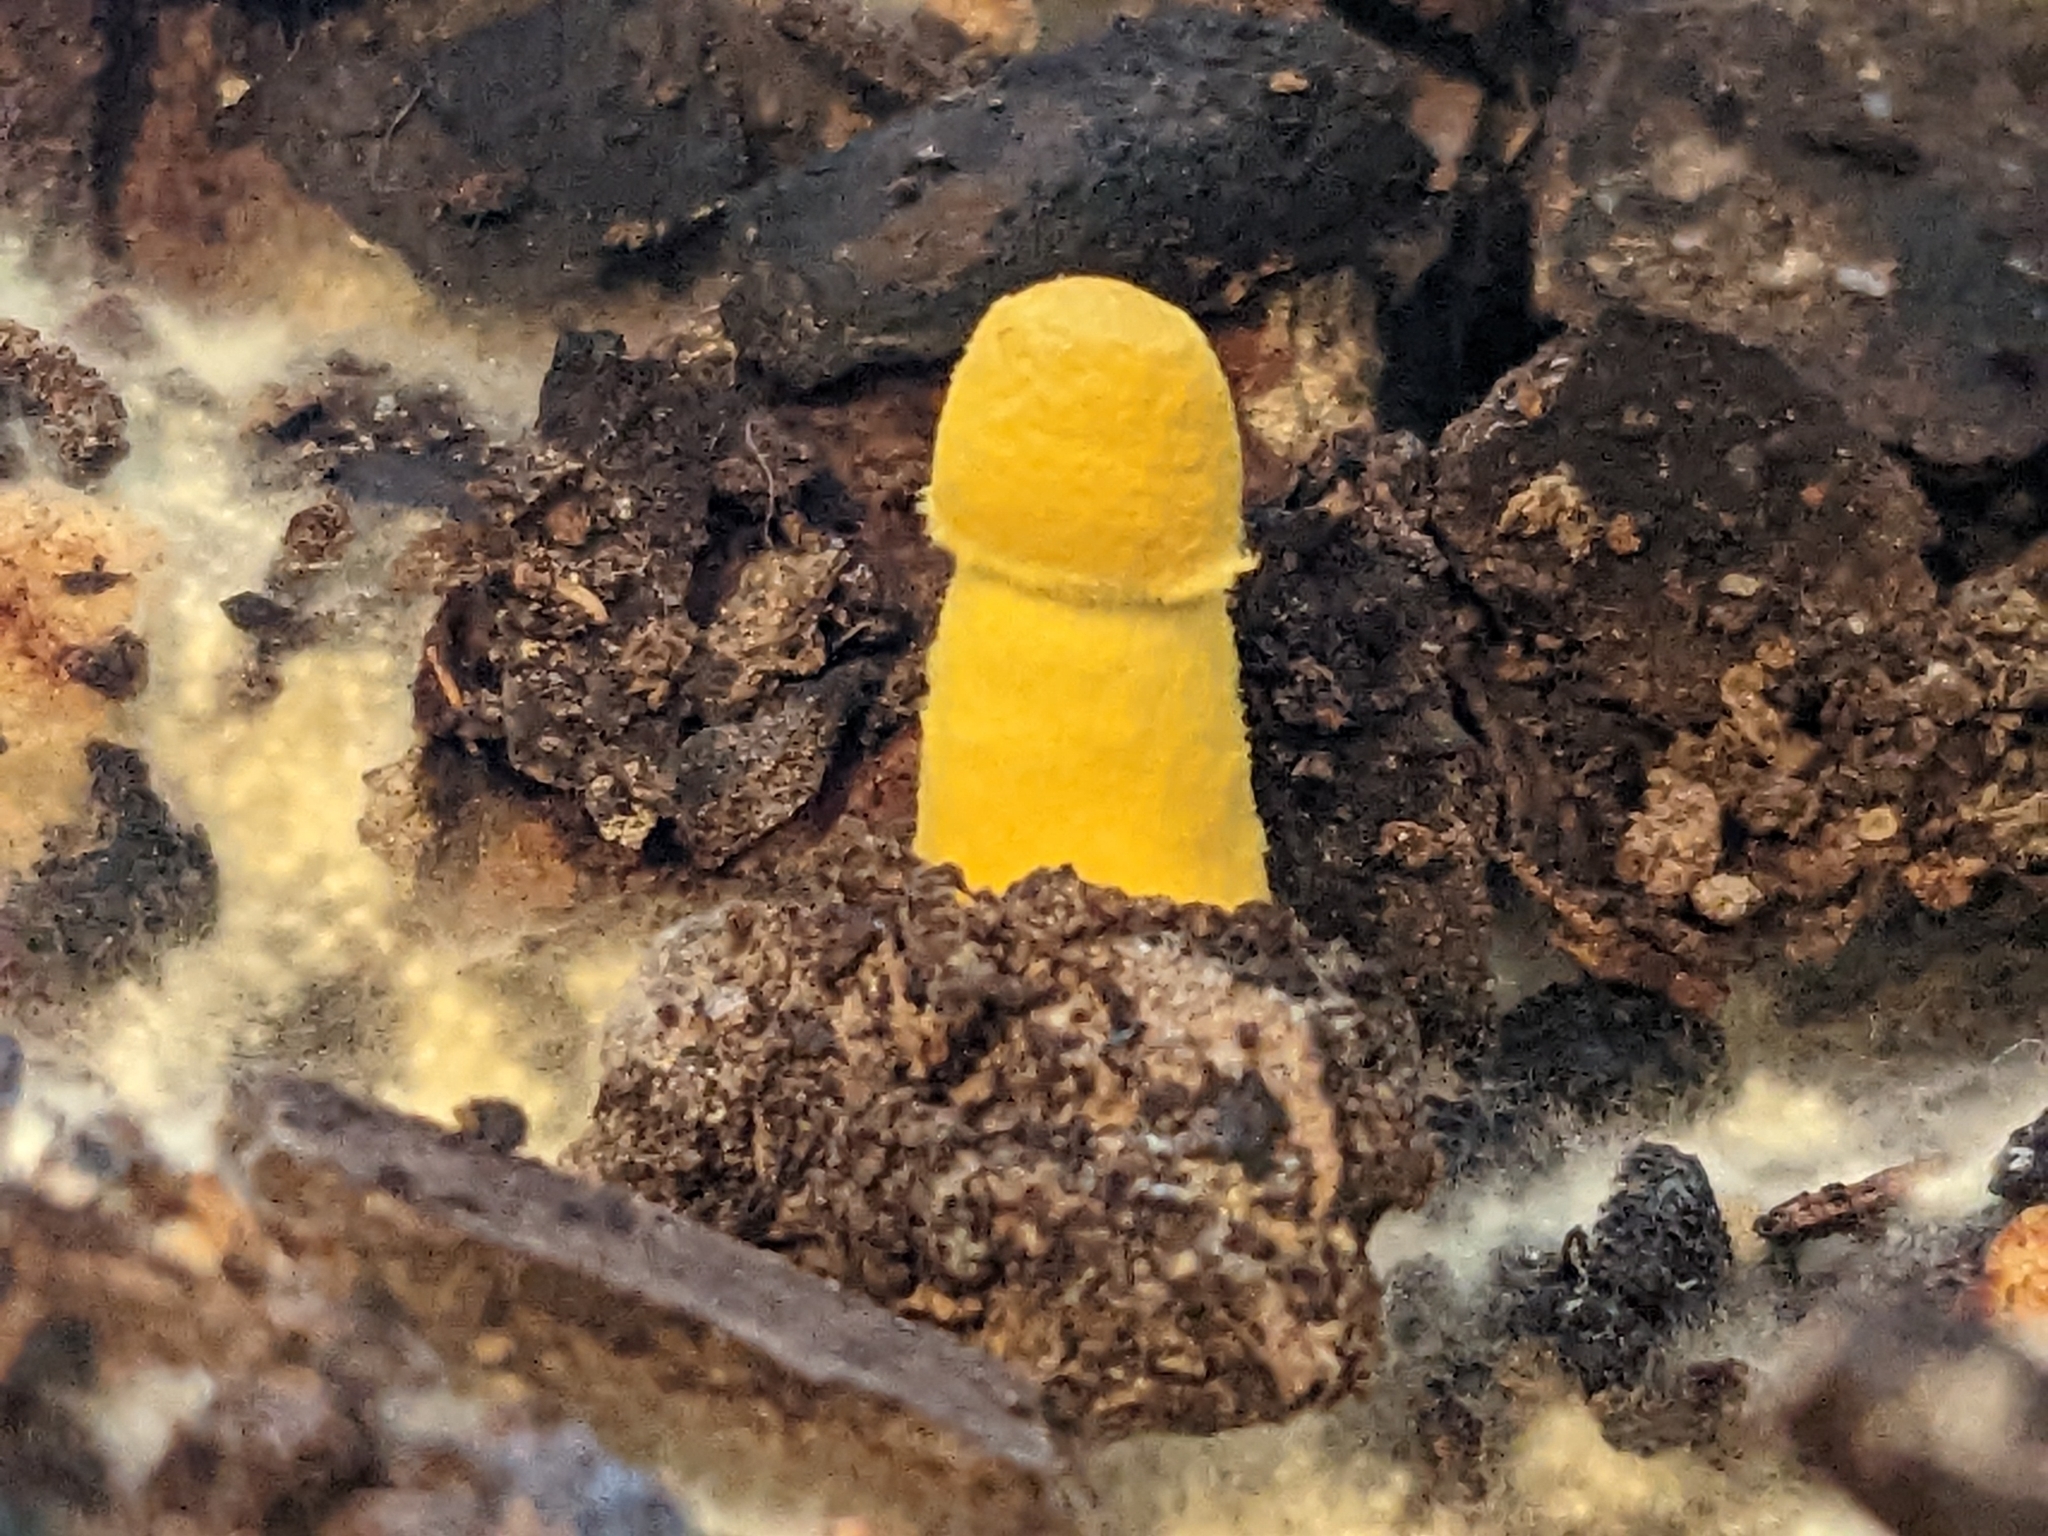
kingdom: Fungi
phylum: Basidiomycota
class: Agaricomycetes
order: Agaricales
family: Agaricaceae
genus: Leucocoprinus
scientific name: Leucocoprinus birnbaumii
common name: Plantpot dapperling
